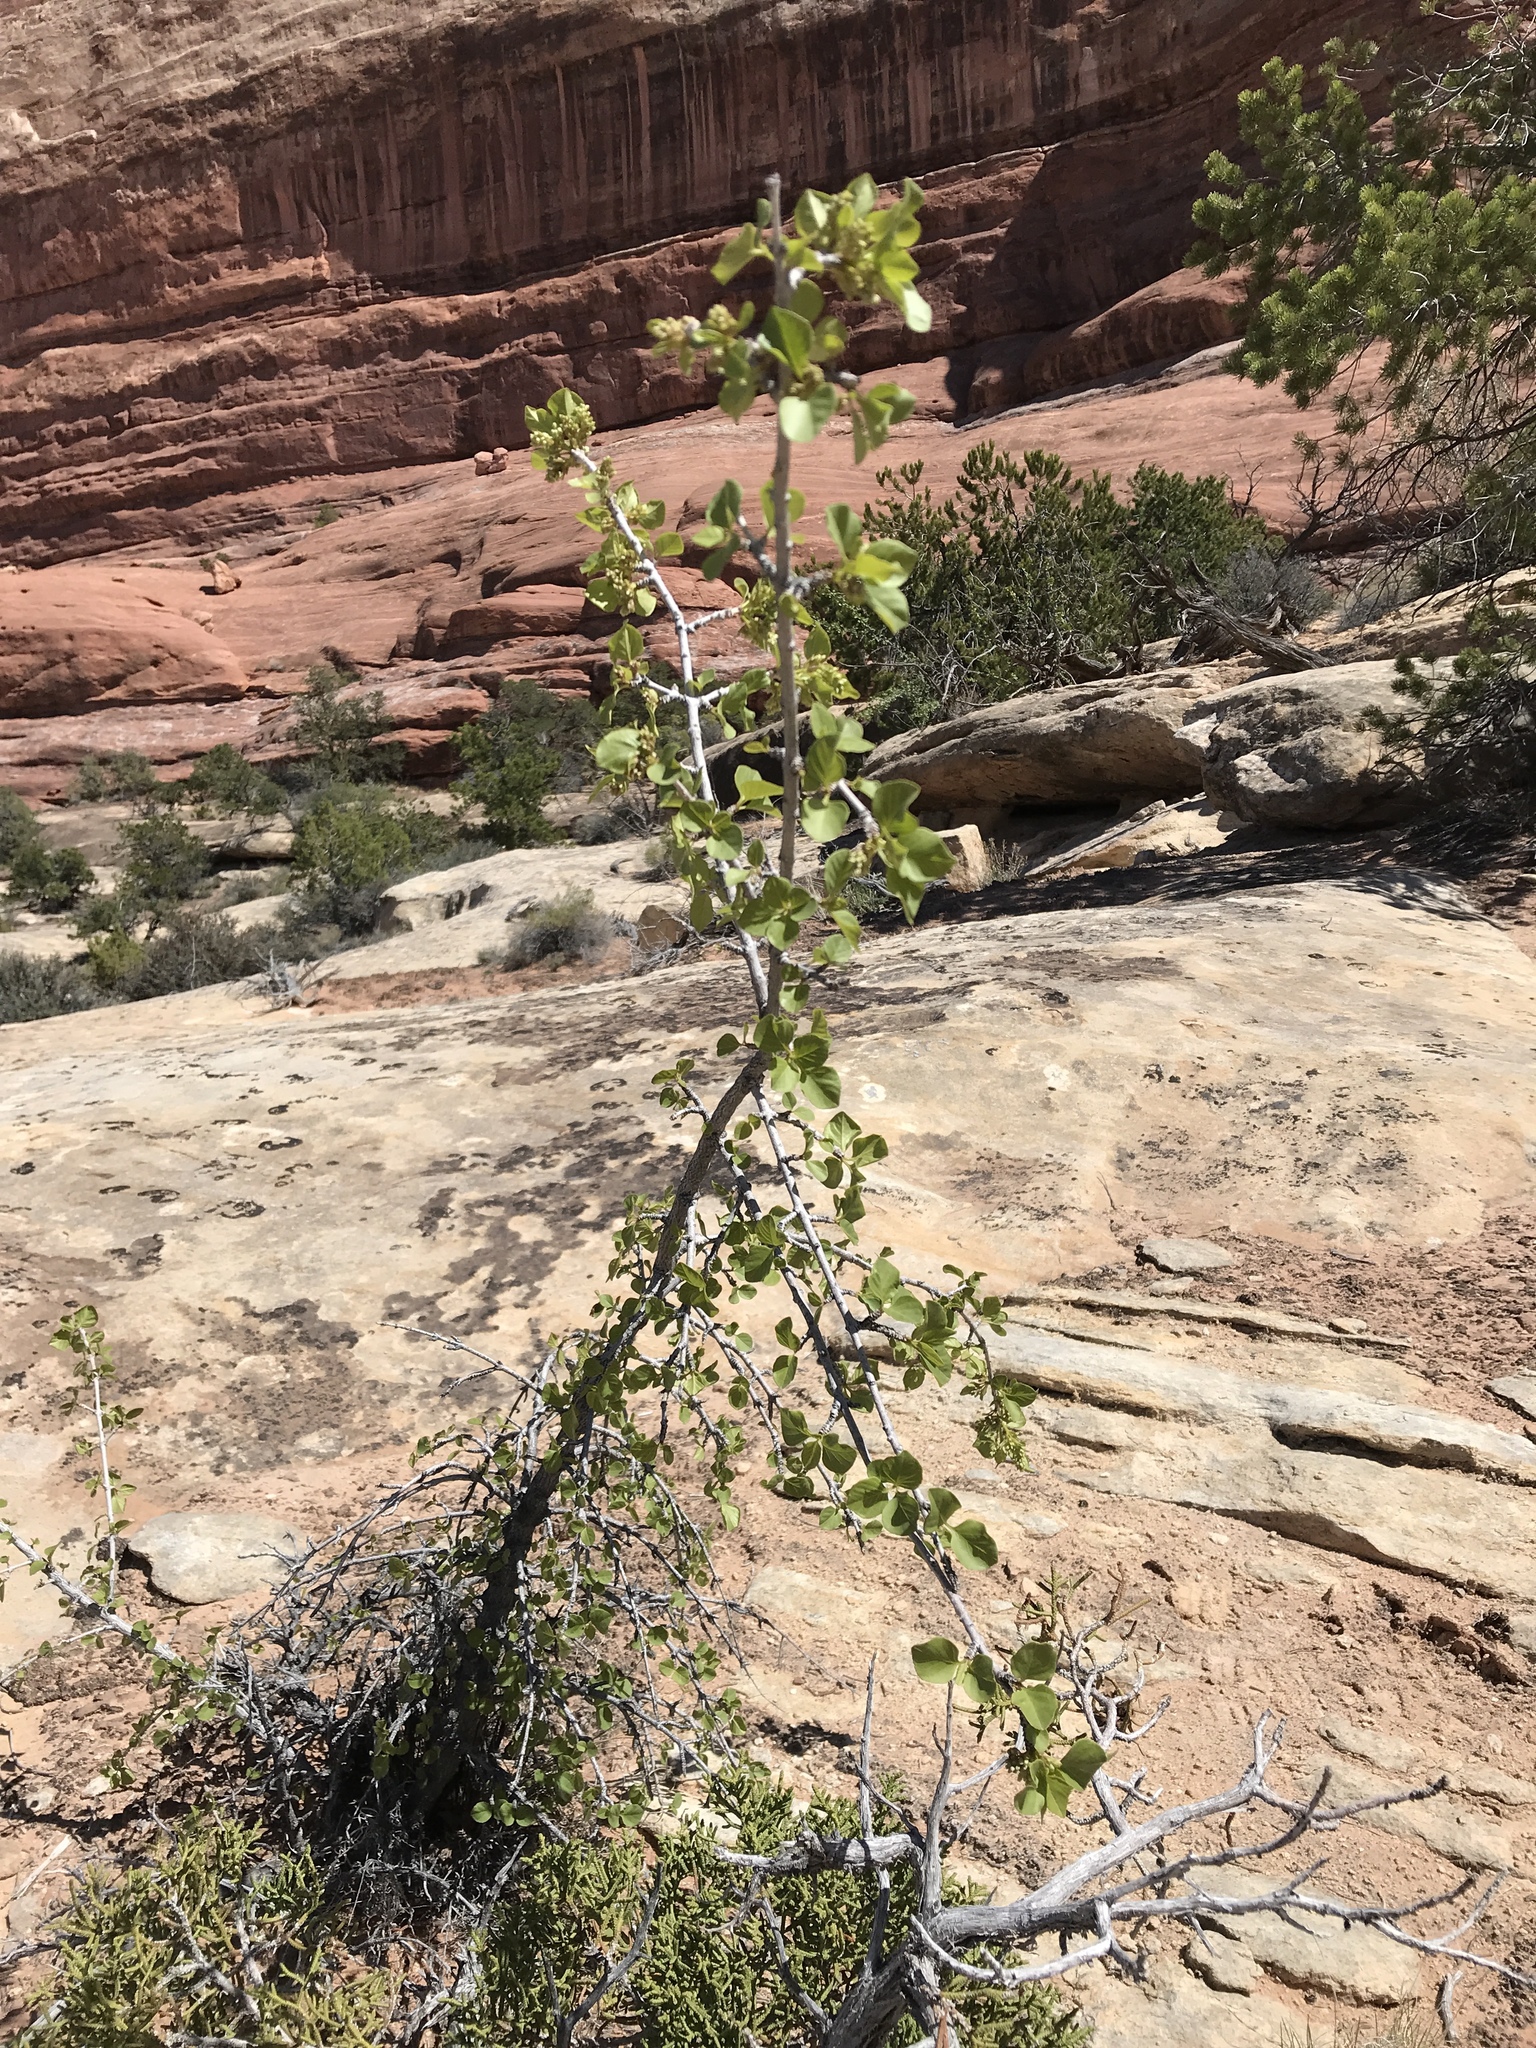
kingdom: Plantae
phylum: Tracheophyta
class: Magnoliopsida
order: Lamiales
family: Oleaceae
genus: Fraxinus
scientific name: Fraxinus anomala
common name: Utah ash
